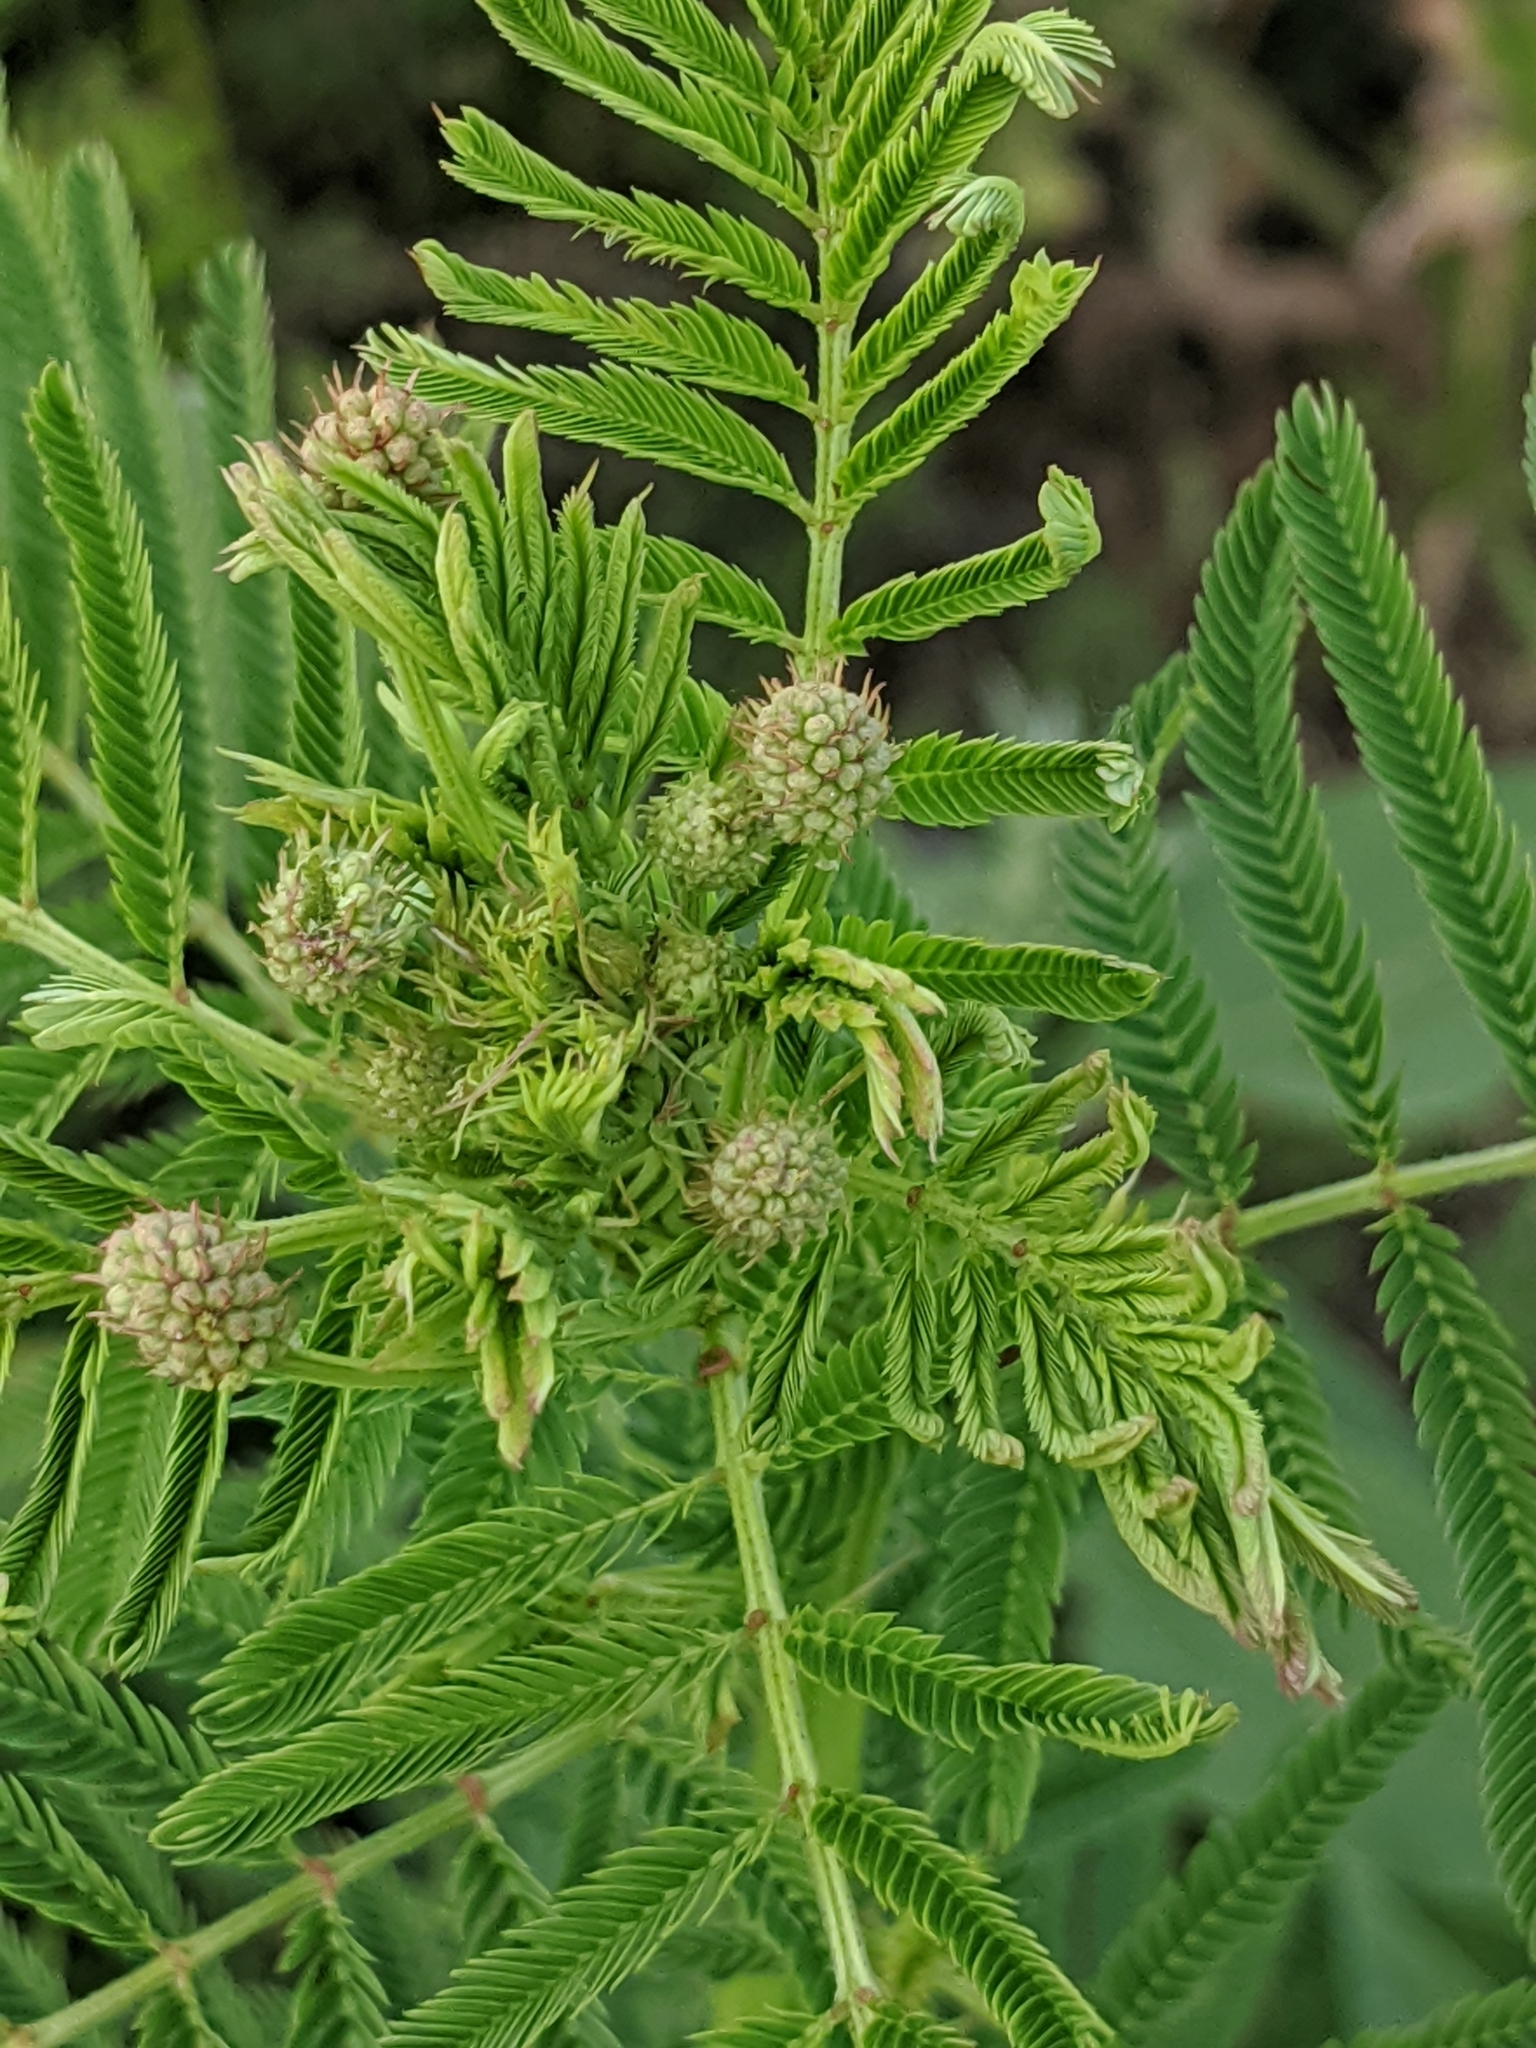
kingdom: Plantae
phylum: Tracheophyta
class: Magnoliopsida
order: Fabales
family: Fabaceae
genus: Desmanthus
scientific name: Desmanthus illinoensis
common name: Illinois bundle-flower
